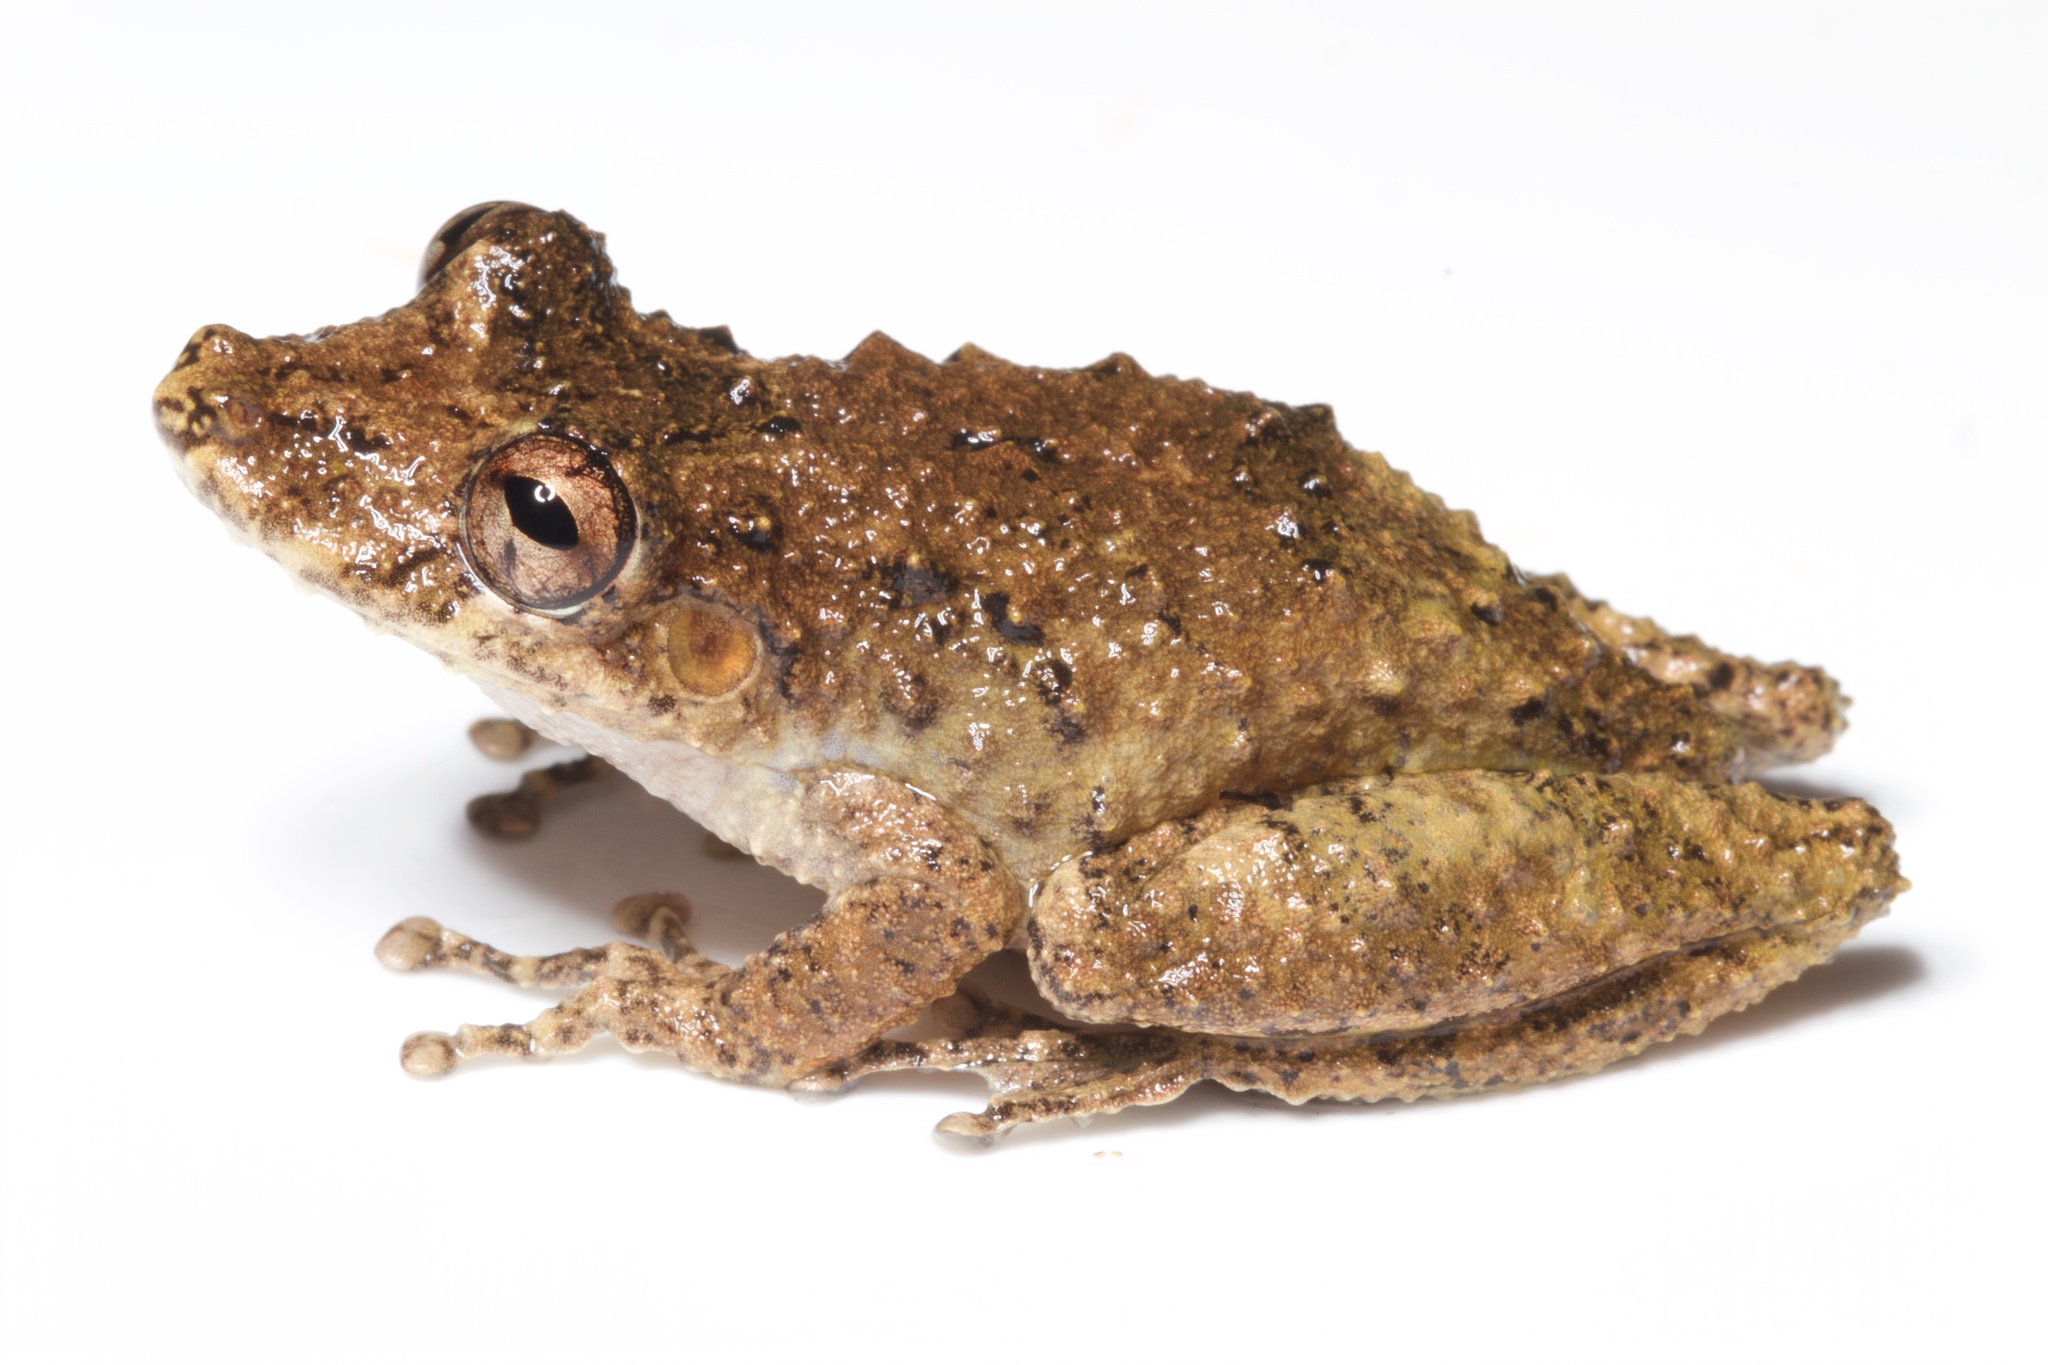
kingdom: Animalia
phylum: Chordata
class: Amphibia
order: Anura
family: Hylidae
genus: Scinax
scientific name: Scinax boulengeri
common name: Boulenger's snouted treefrog
